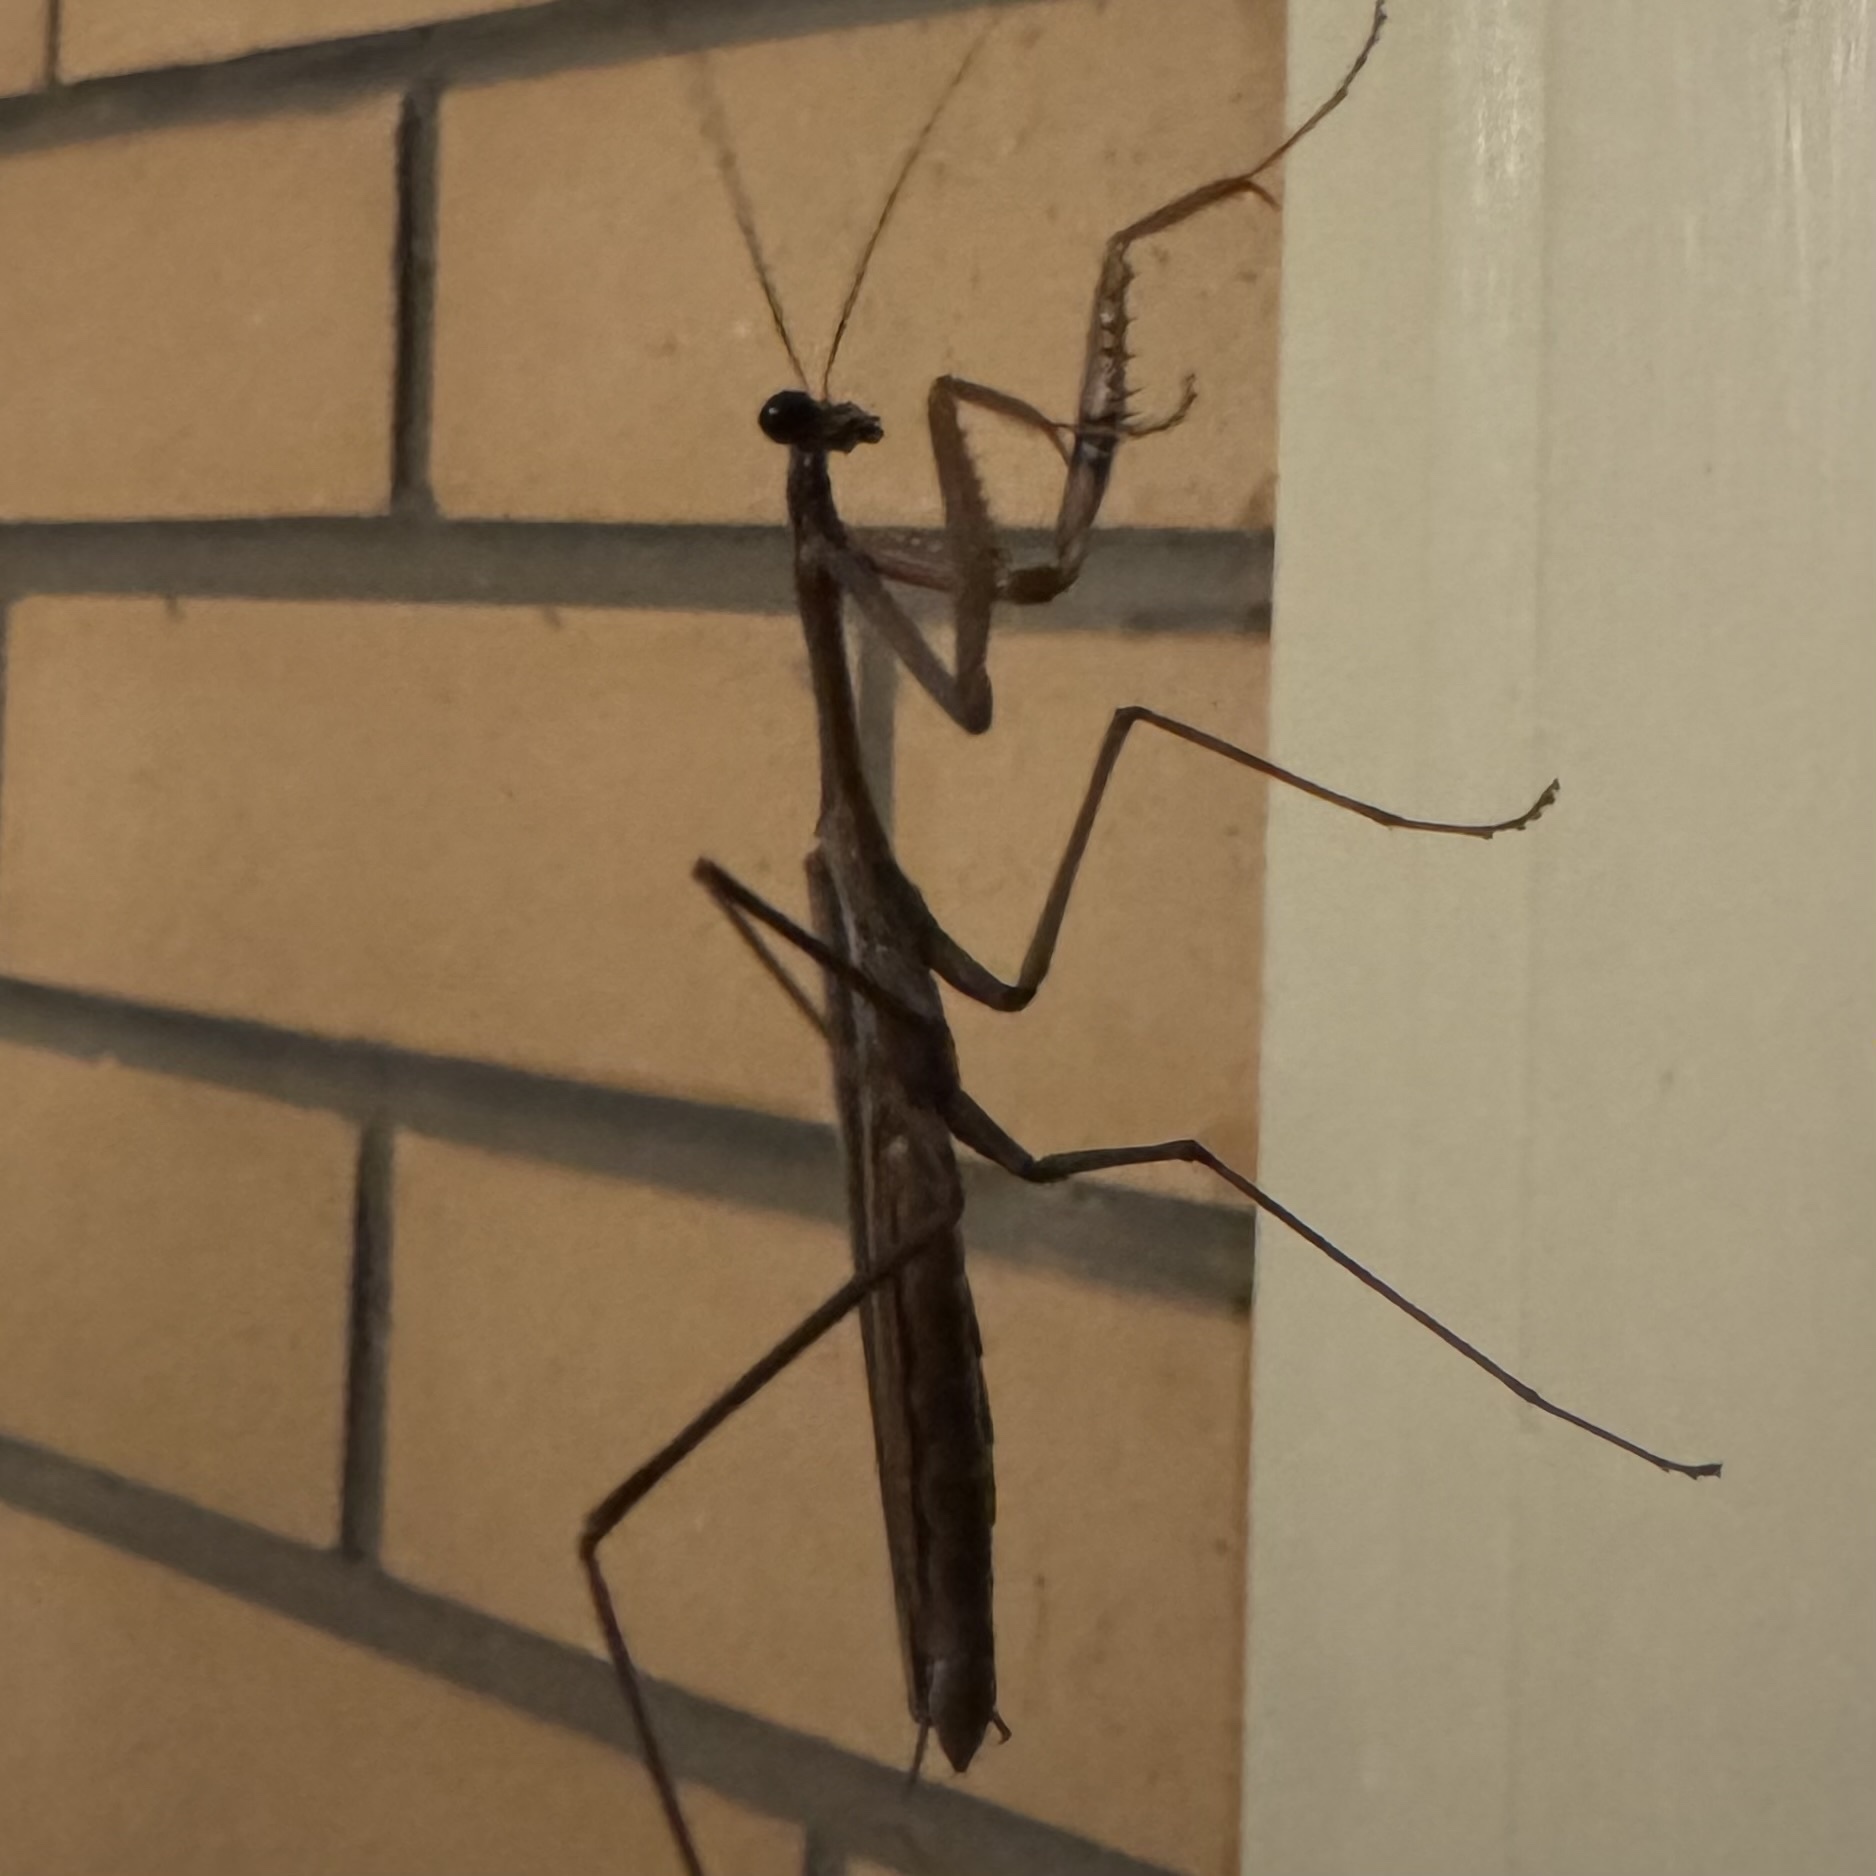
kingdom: Animalia
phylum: Arthropoda
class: Insecta
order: Mantodea
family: Mantidae
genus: Pseudomantis
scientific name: Pseudomantis albofimbriata
